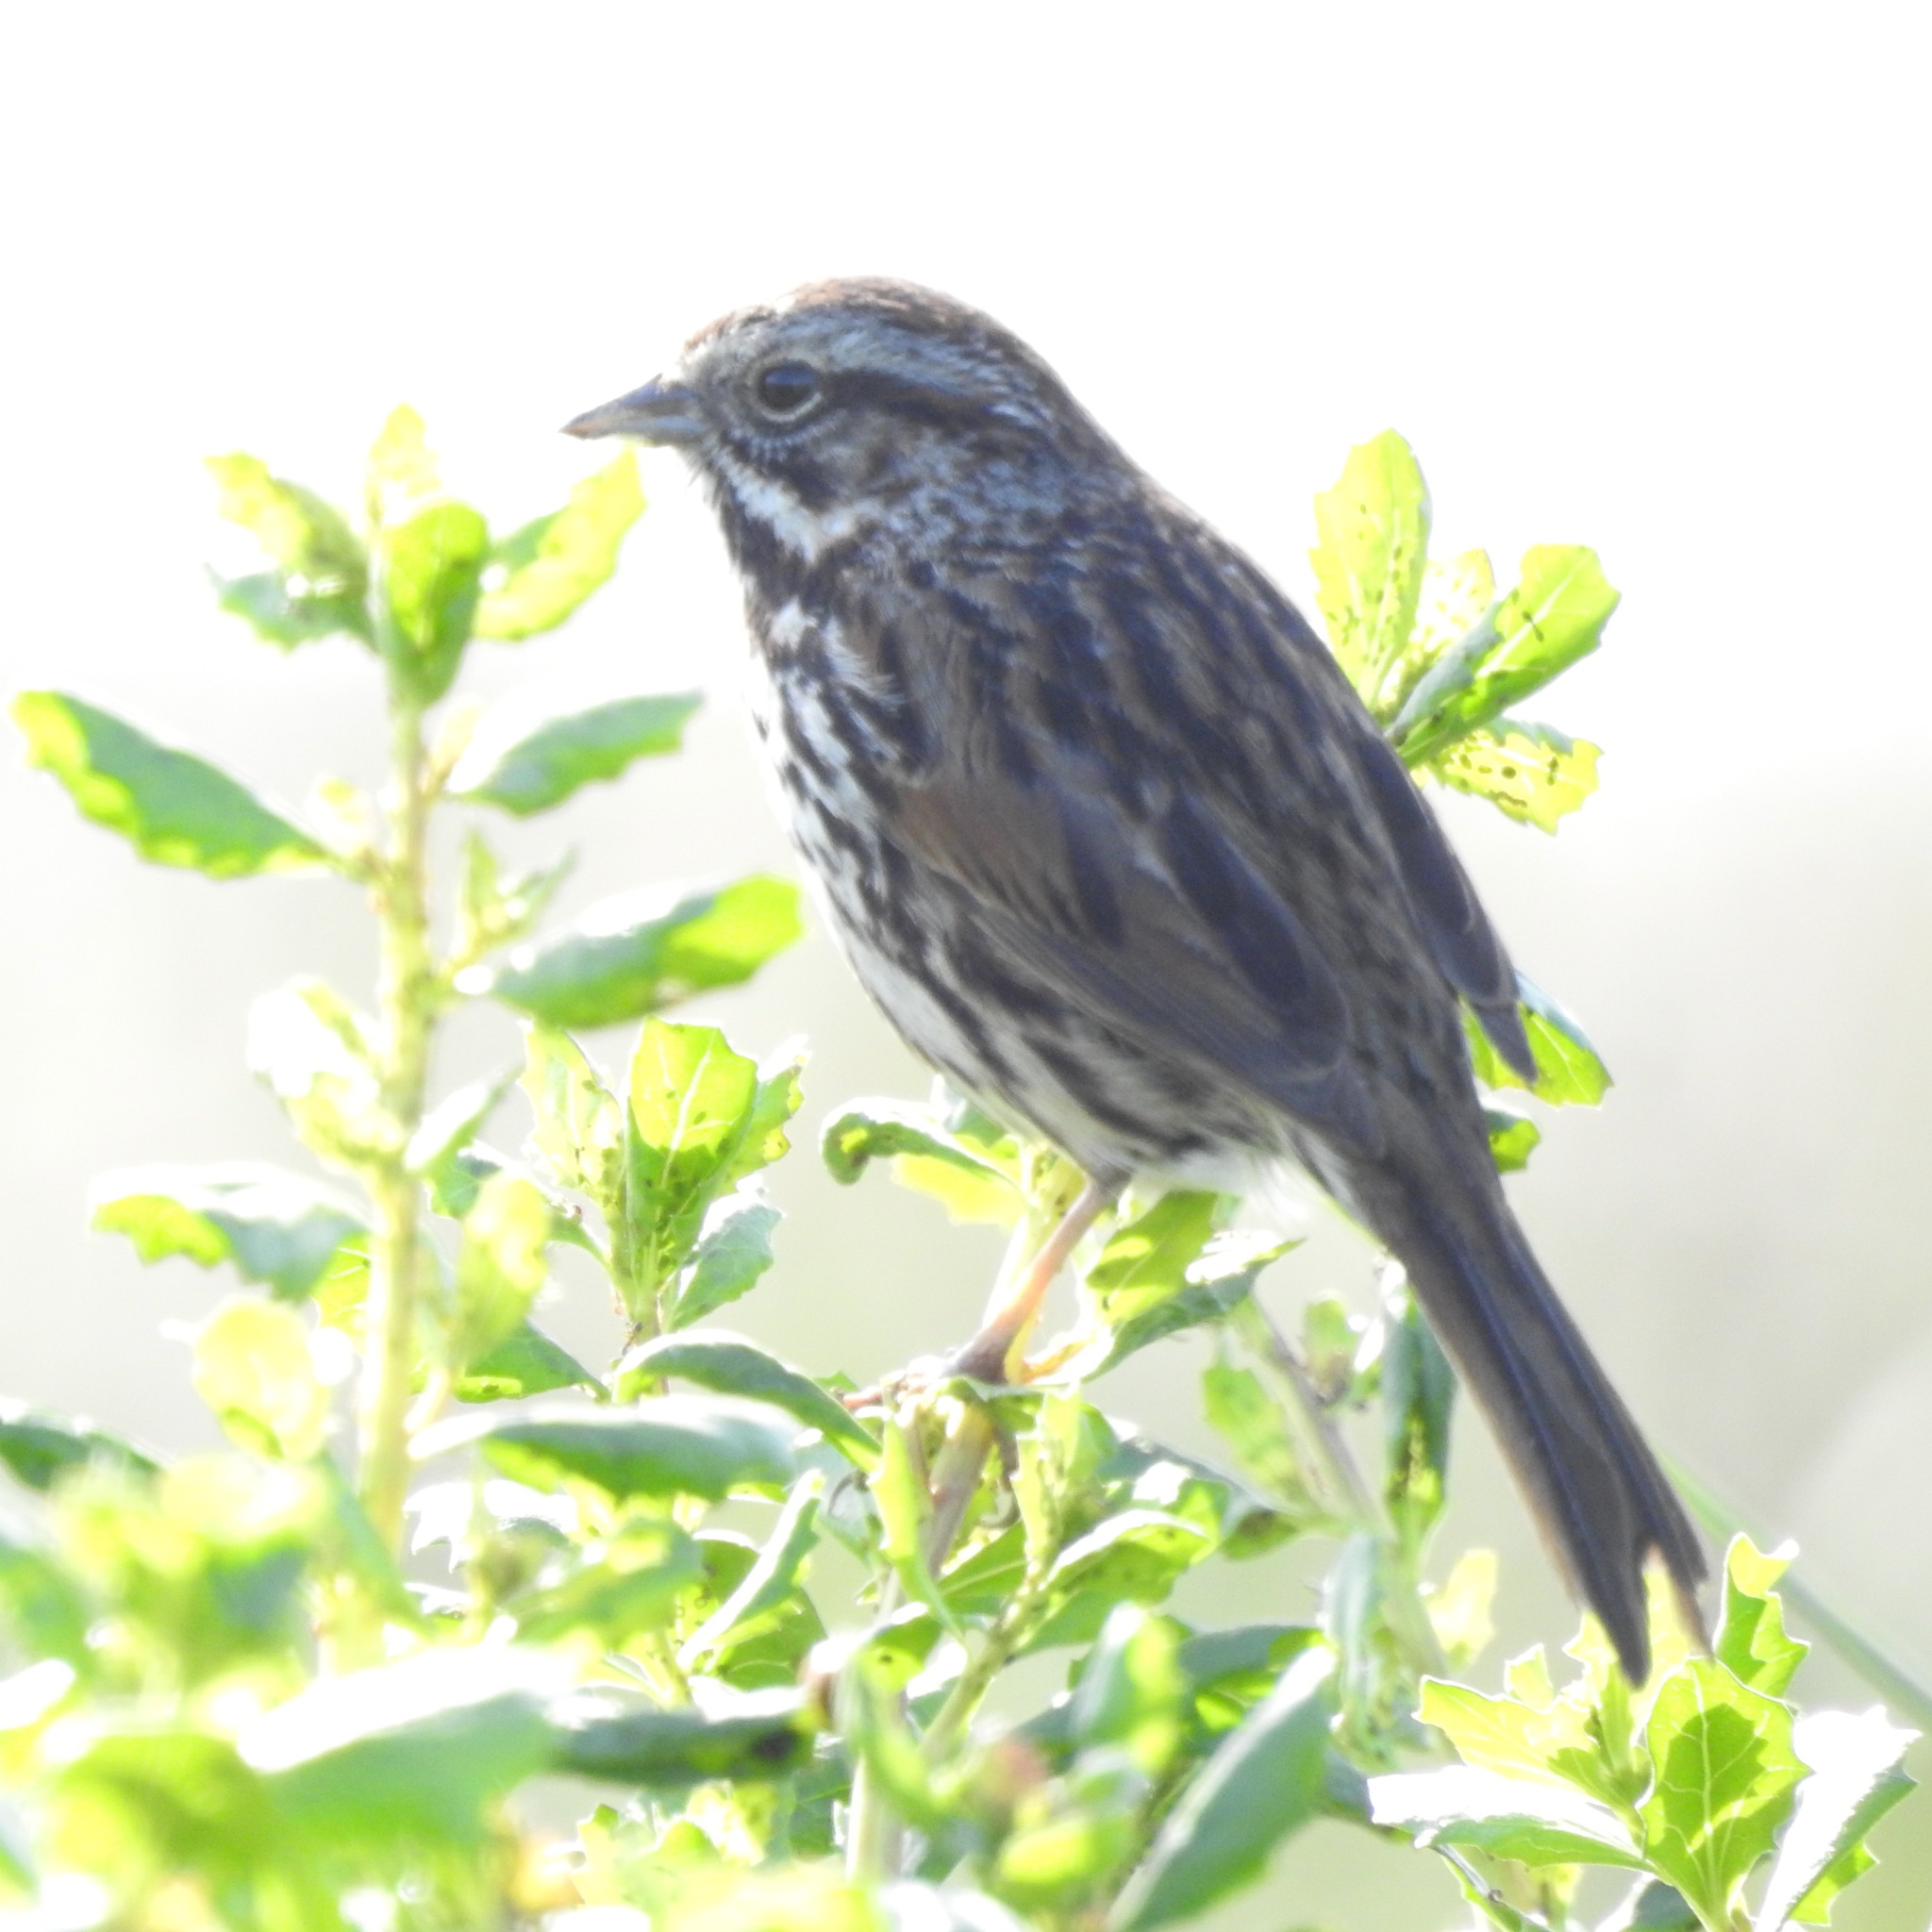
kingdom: Animalia
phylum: Chordata
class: Aves
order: Passeriformes
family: Passerellidae
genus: Melospiza
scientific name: Melospiza melodia
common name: Song sparrow
